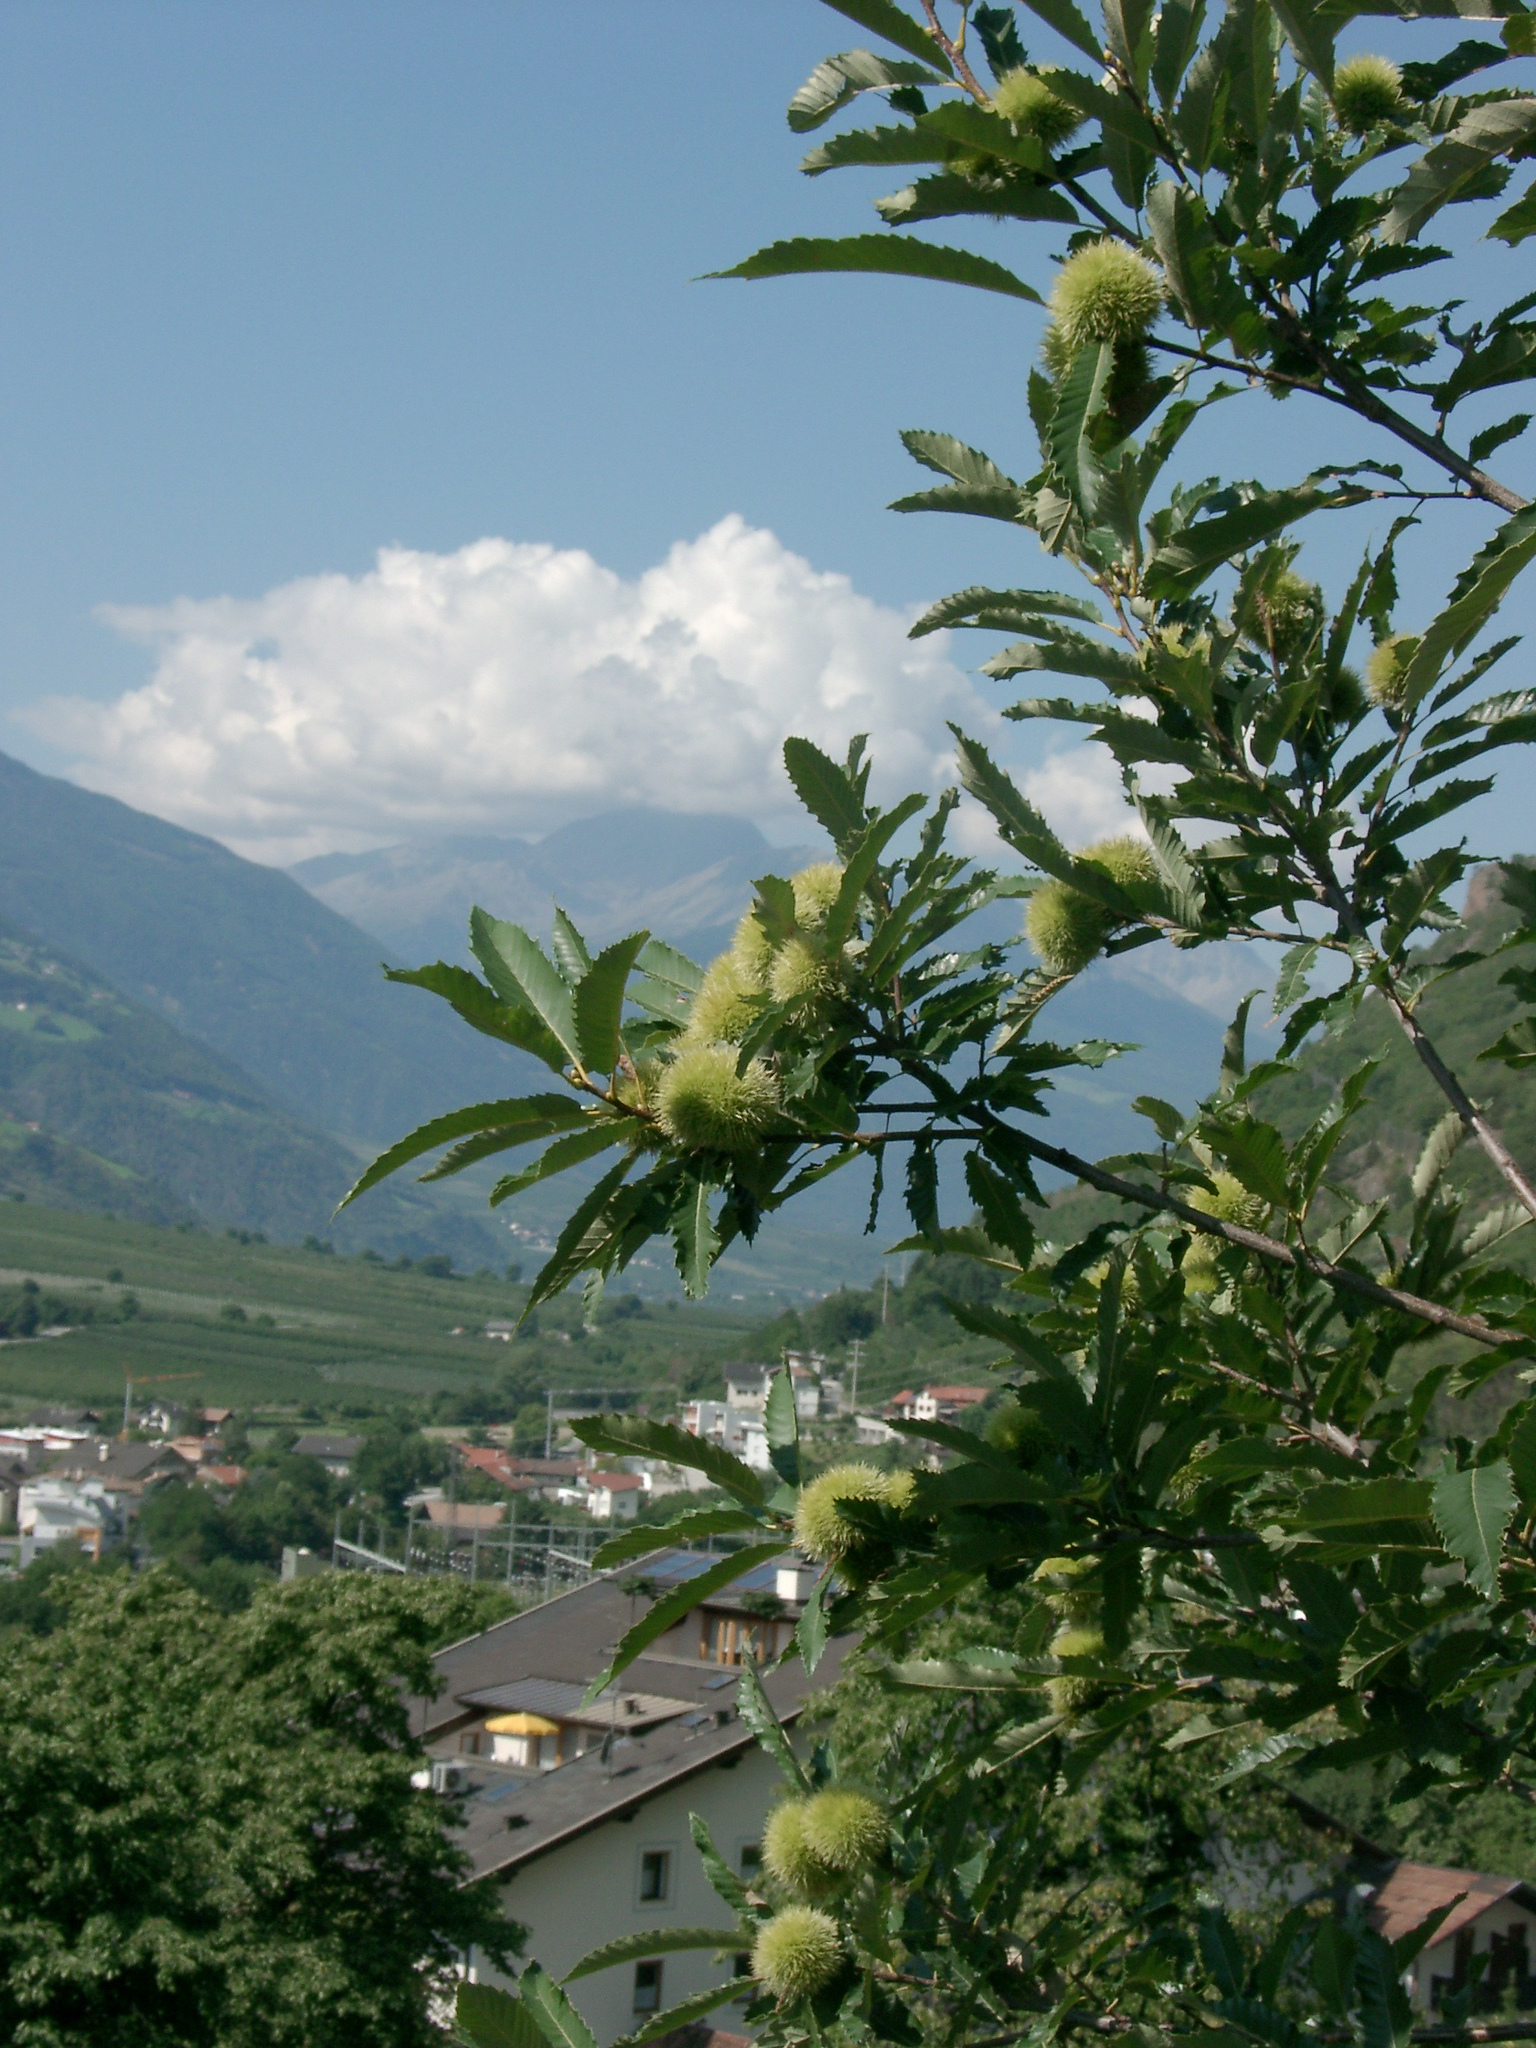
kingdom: Plantae
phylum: Tracheophyta
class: Magnoliopsida
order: Fagales
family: Fagaceae
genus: Castanea
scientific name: Castanea sativa
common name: Sweet chestnut
